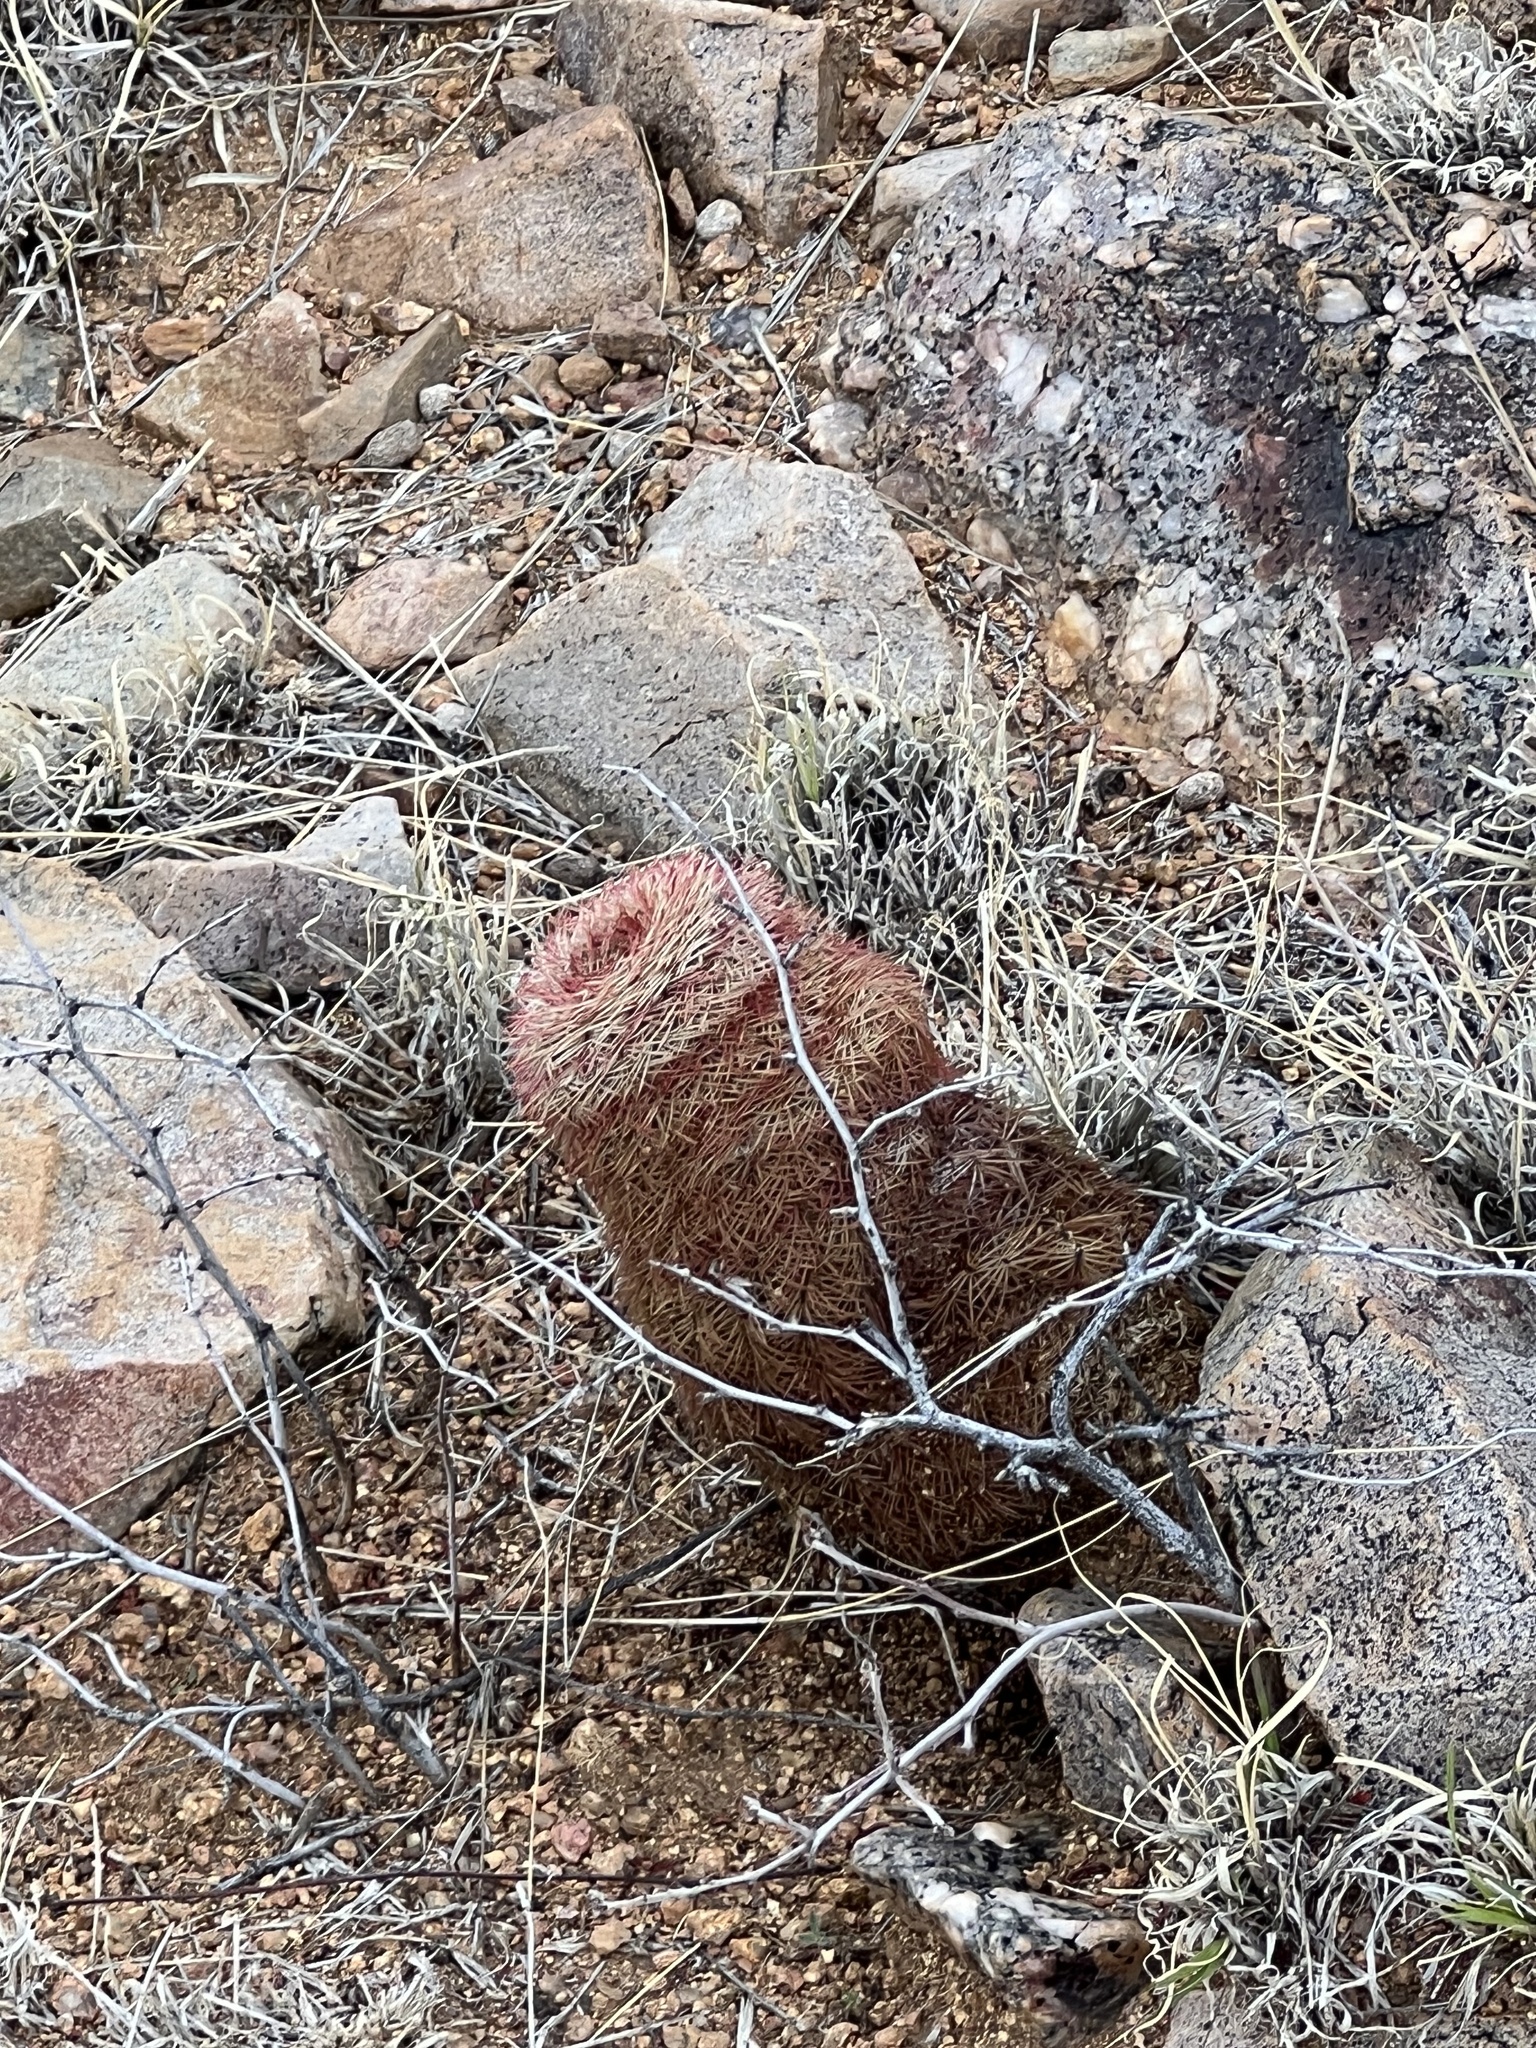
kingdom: Plantae
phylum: Tracheophyta
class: Magnoliopsida
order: Caryophyllales
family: Cactaceae
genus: Echinocereus
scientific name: Echinocereus rigidissimus
